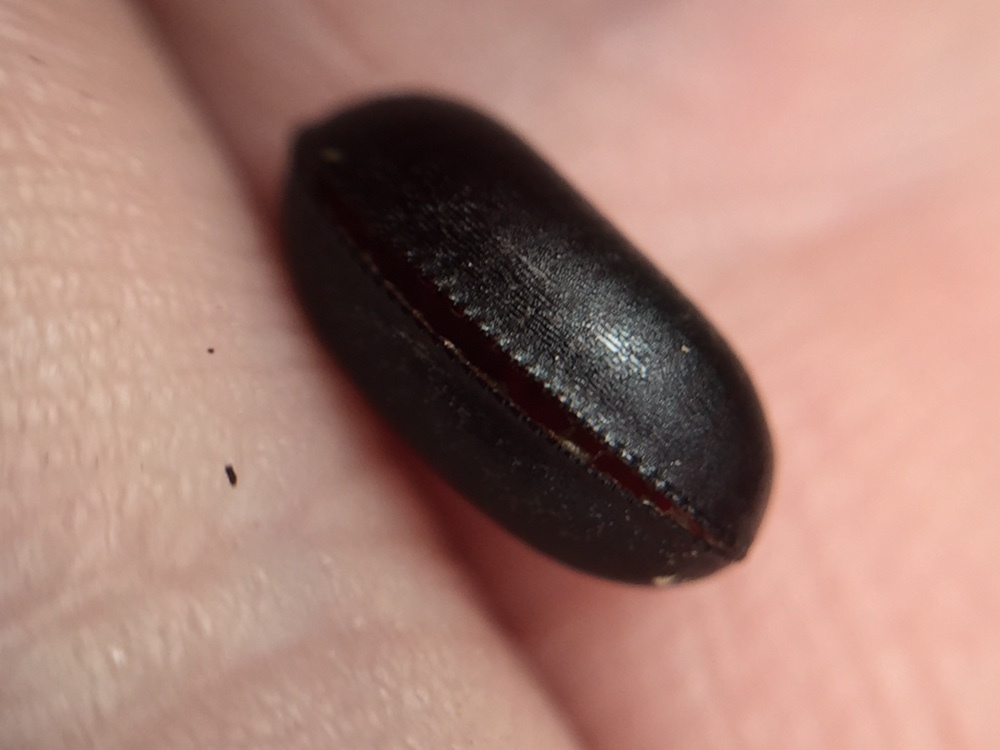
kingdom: Animalia
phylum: Arthropoda
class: Insecta
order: Blattodea
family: Blattidae
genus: Maoriblatta
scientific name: Maoriblatta novaeseelandiae
